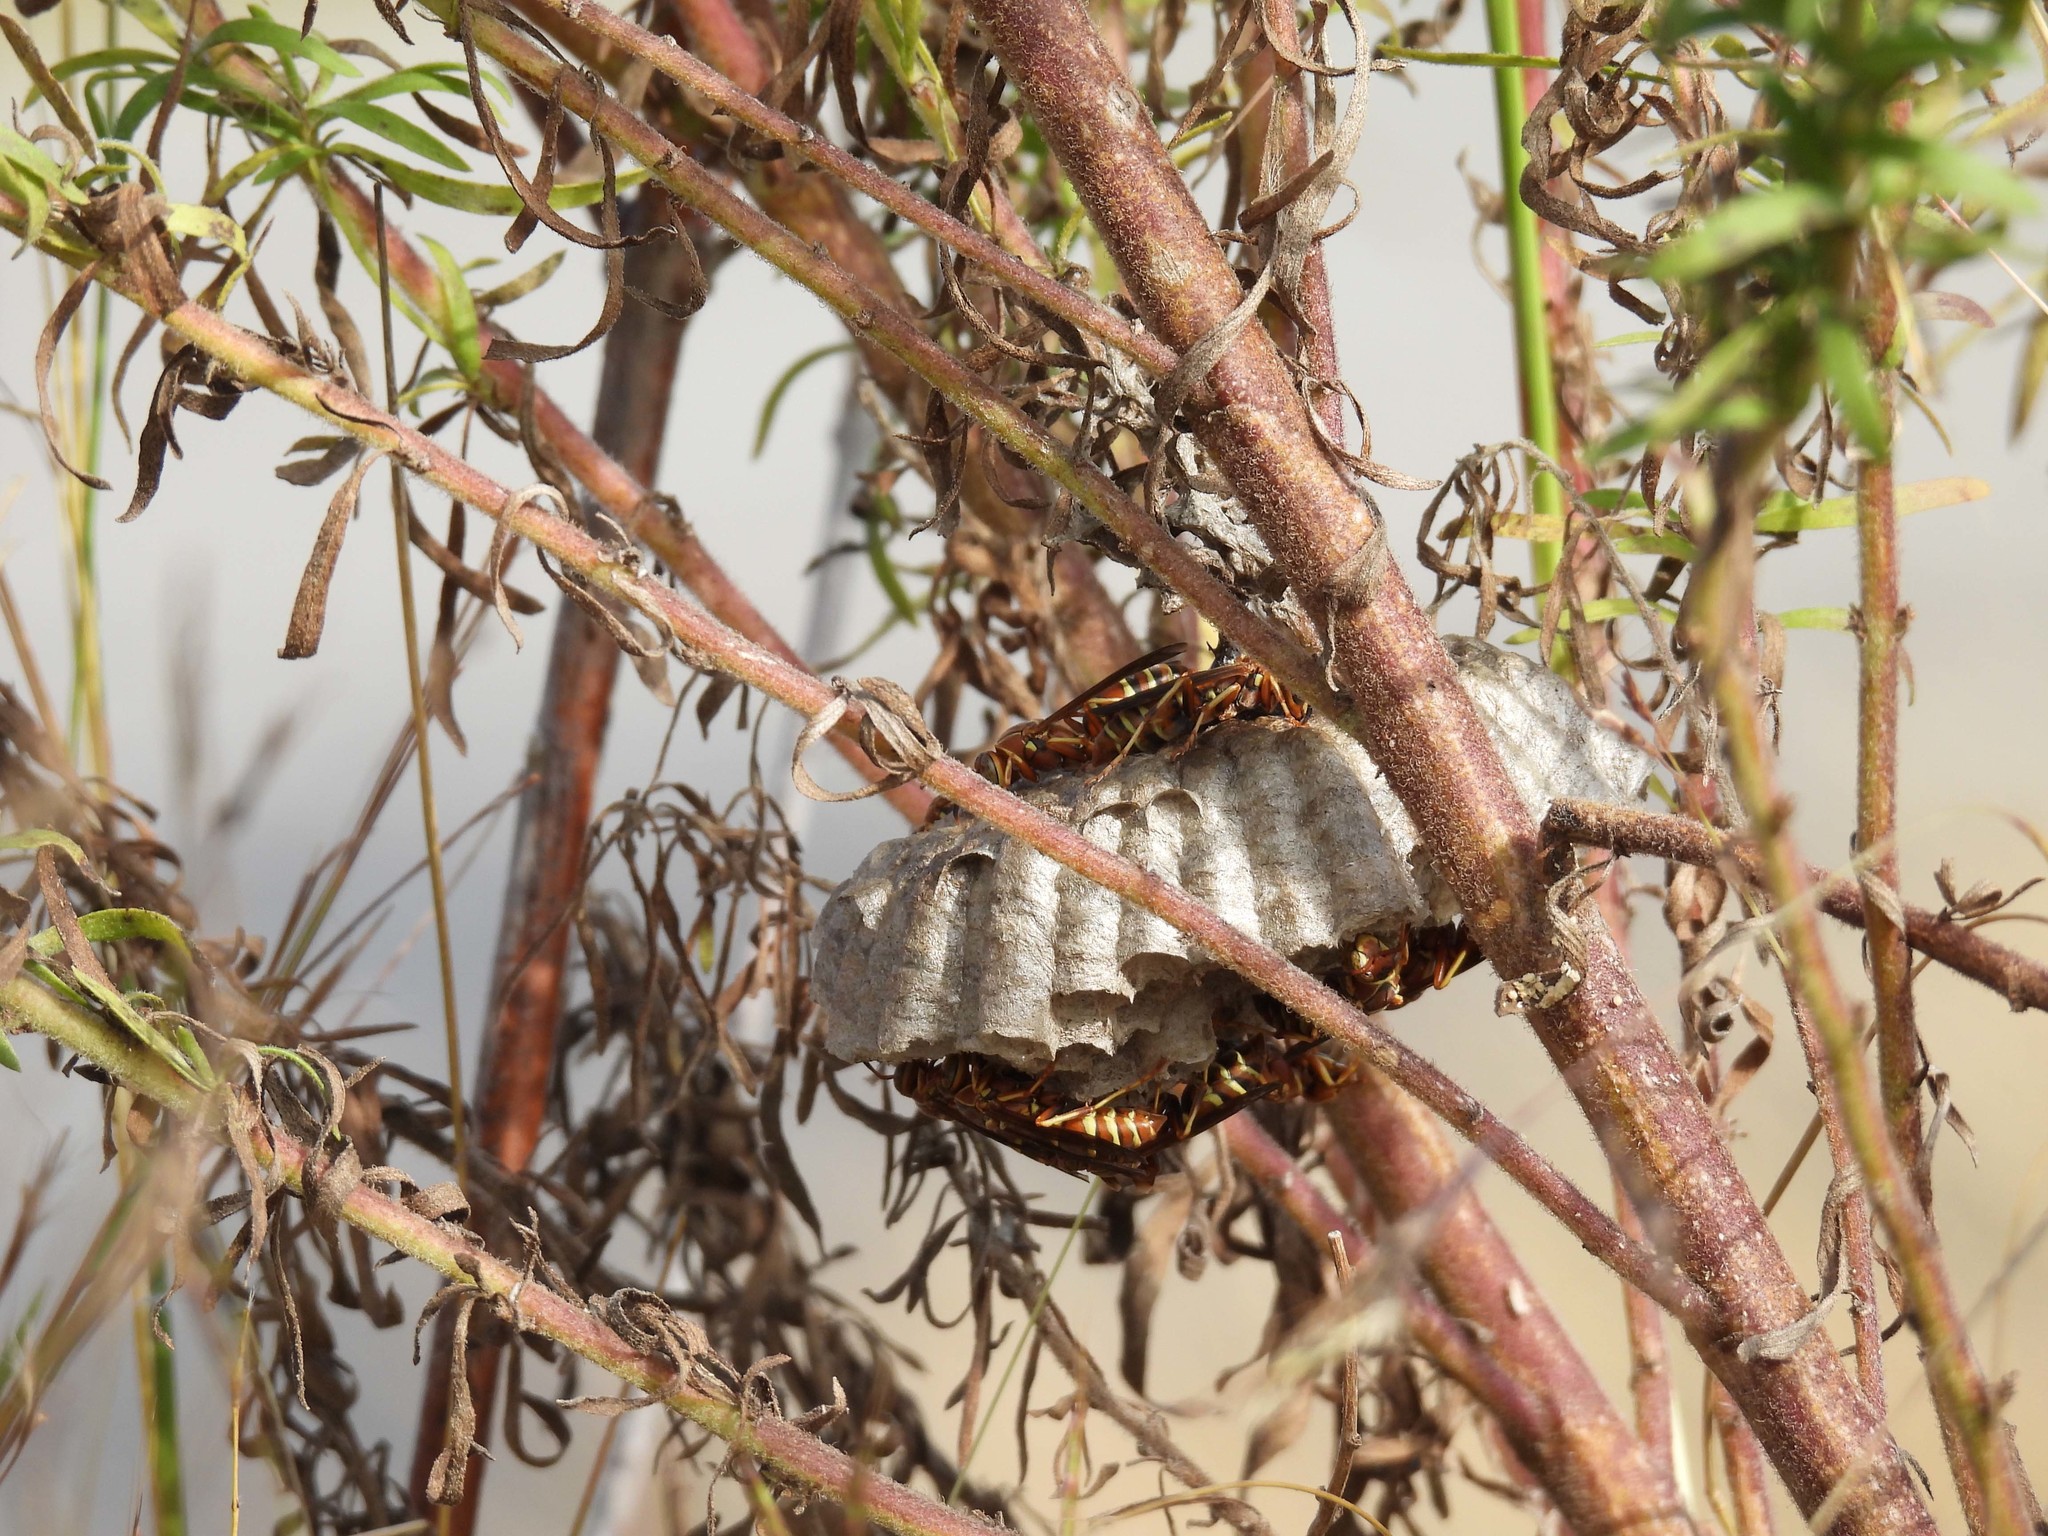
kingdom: Animalia
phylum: Arthropoda
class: Insecta
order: Hymenoptera
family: Eumenidae
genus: Polistes
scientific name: Polistes bellicosus
